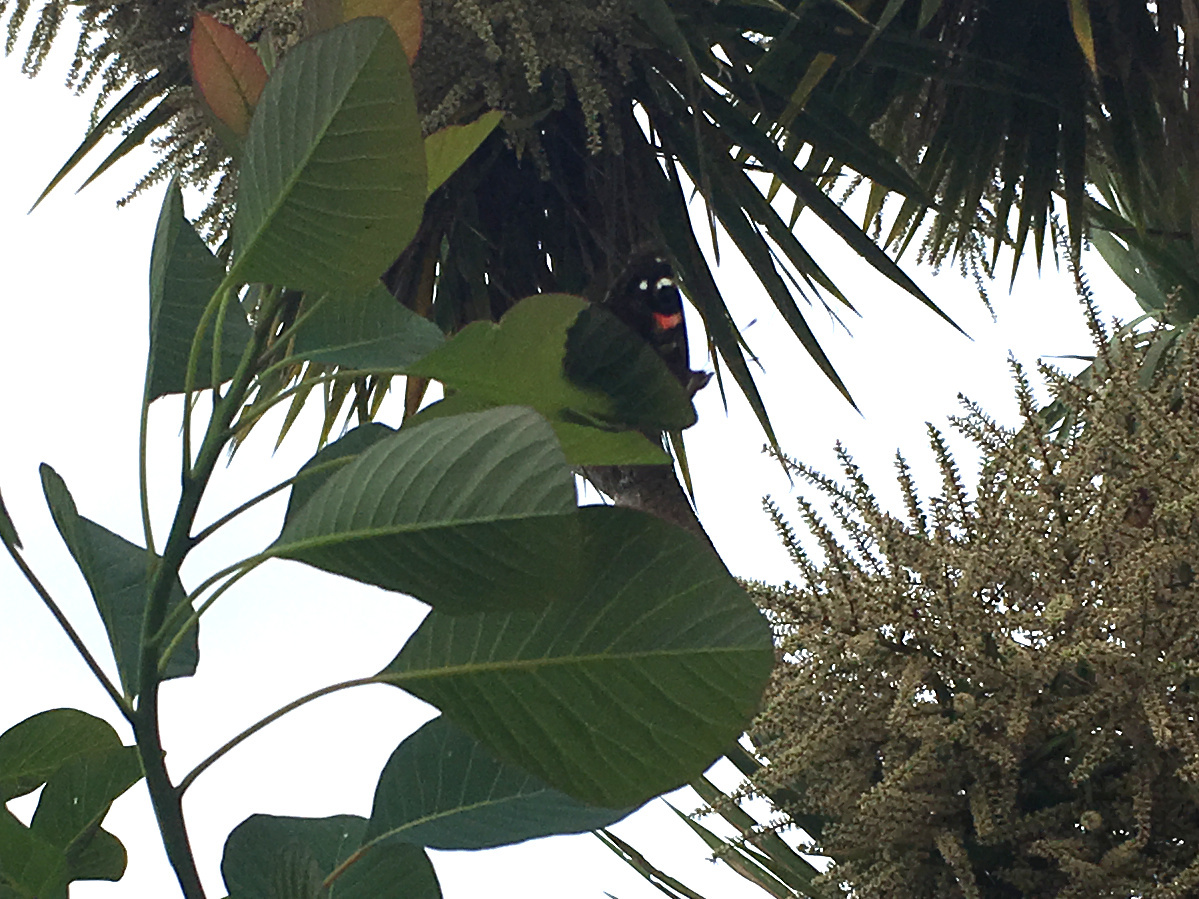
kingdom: Animalia
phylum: Arthropoda
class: Insecta
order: Lepidoptera
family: Nymphalidae
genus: Vanessa
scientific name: Vanessa gonerilla
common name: New zealand red admiral
